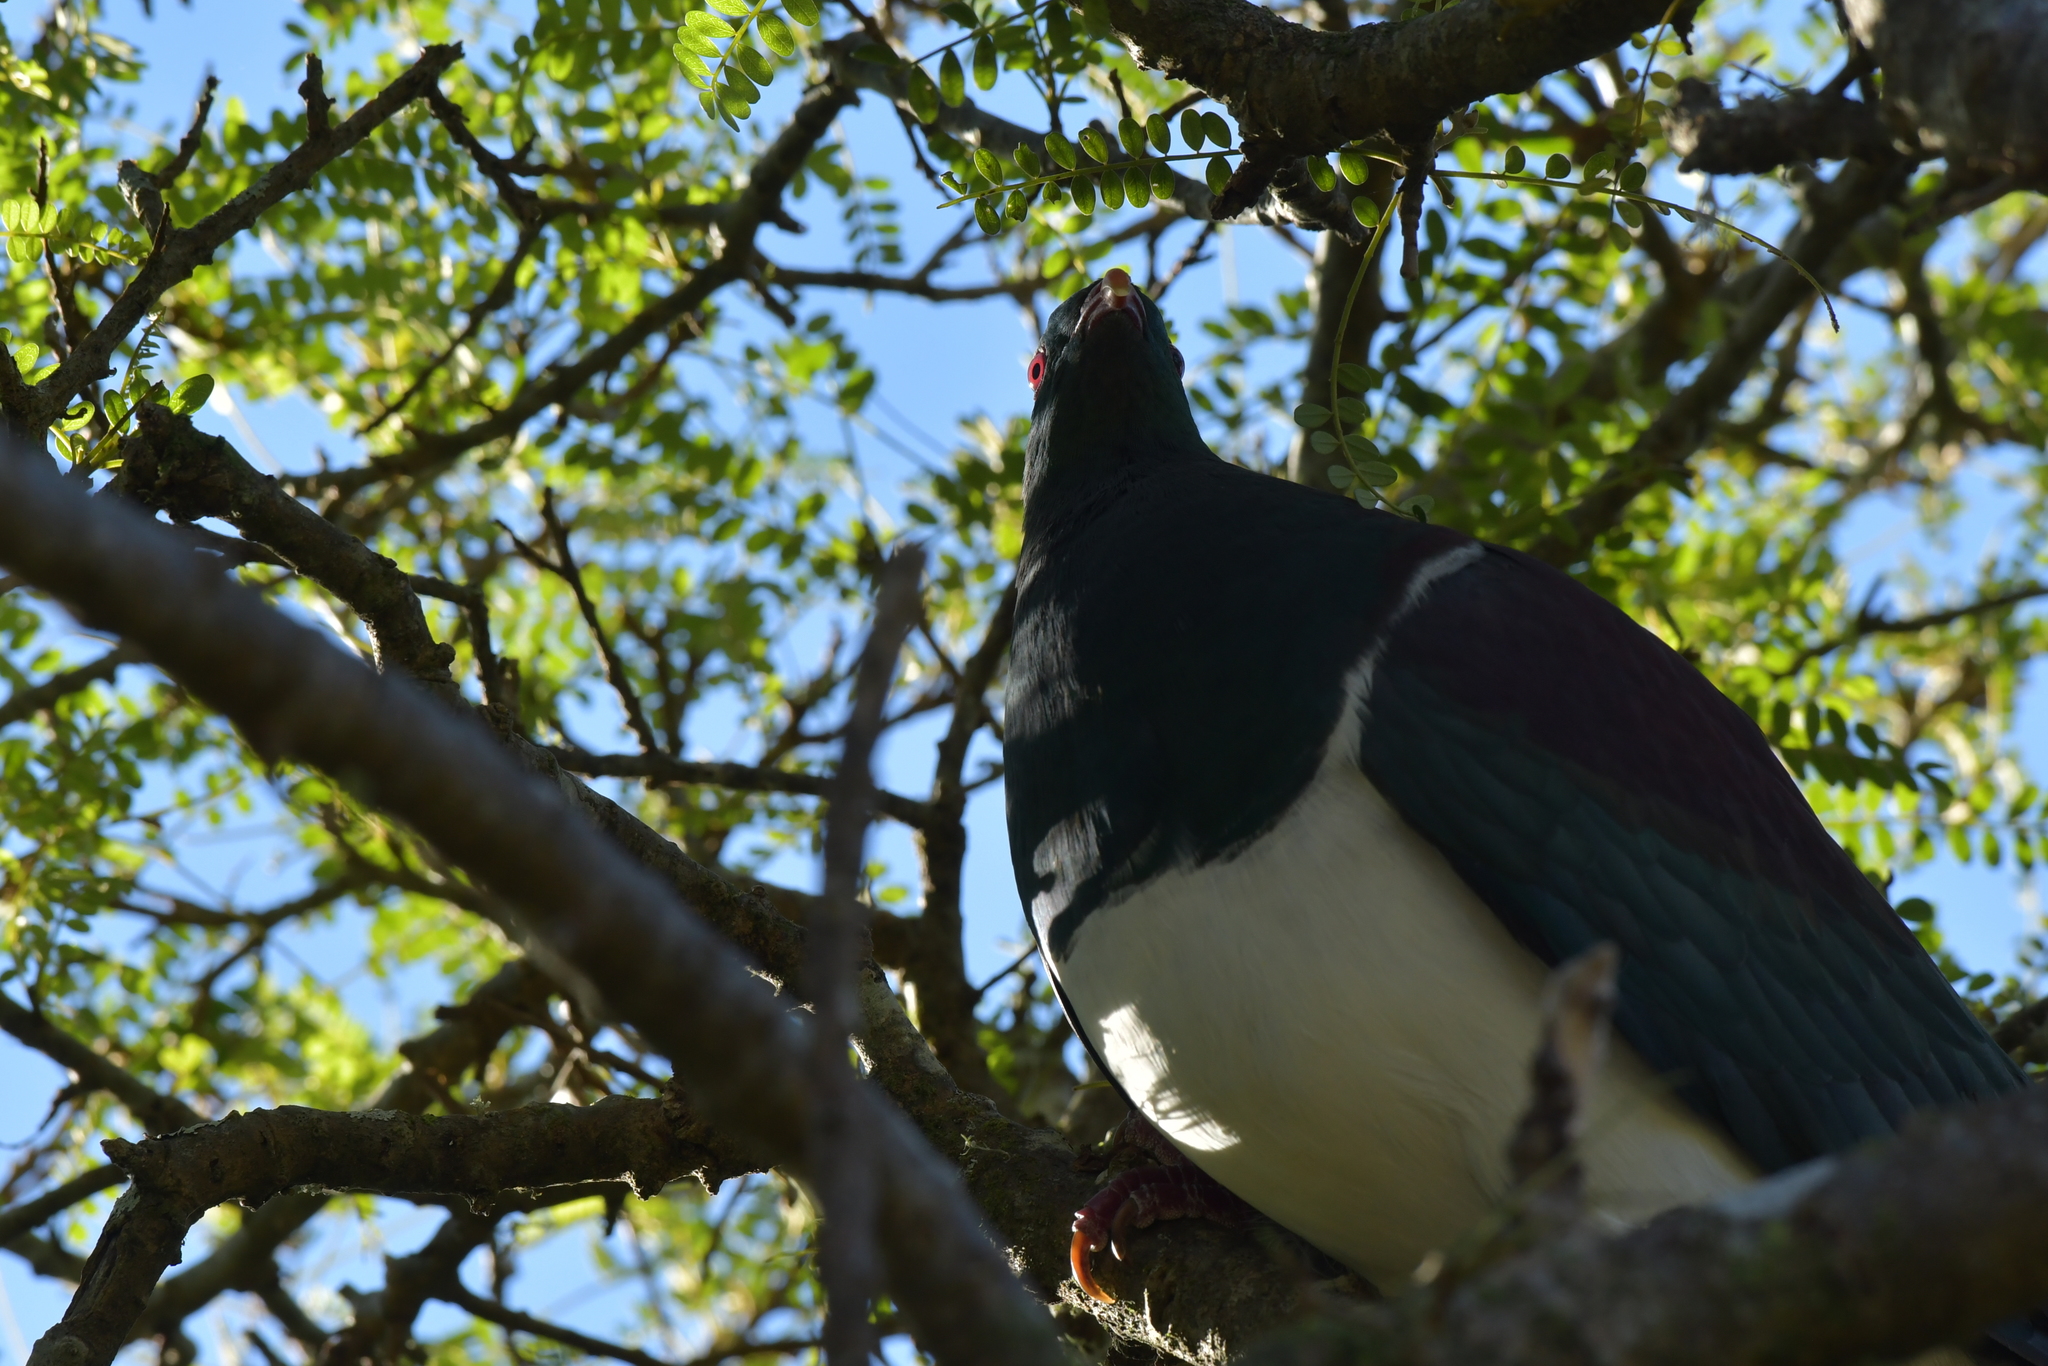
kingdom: Animalia
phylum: Chordata
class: Aves
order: Columbiformes
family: Columbidae
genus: Hemiphaga
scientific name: Hemiphaga novaeseelandiae
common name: New zealand pigeon
